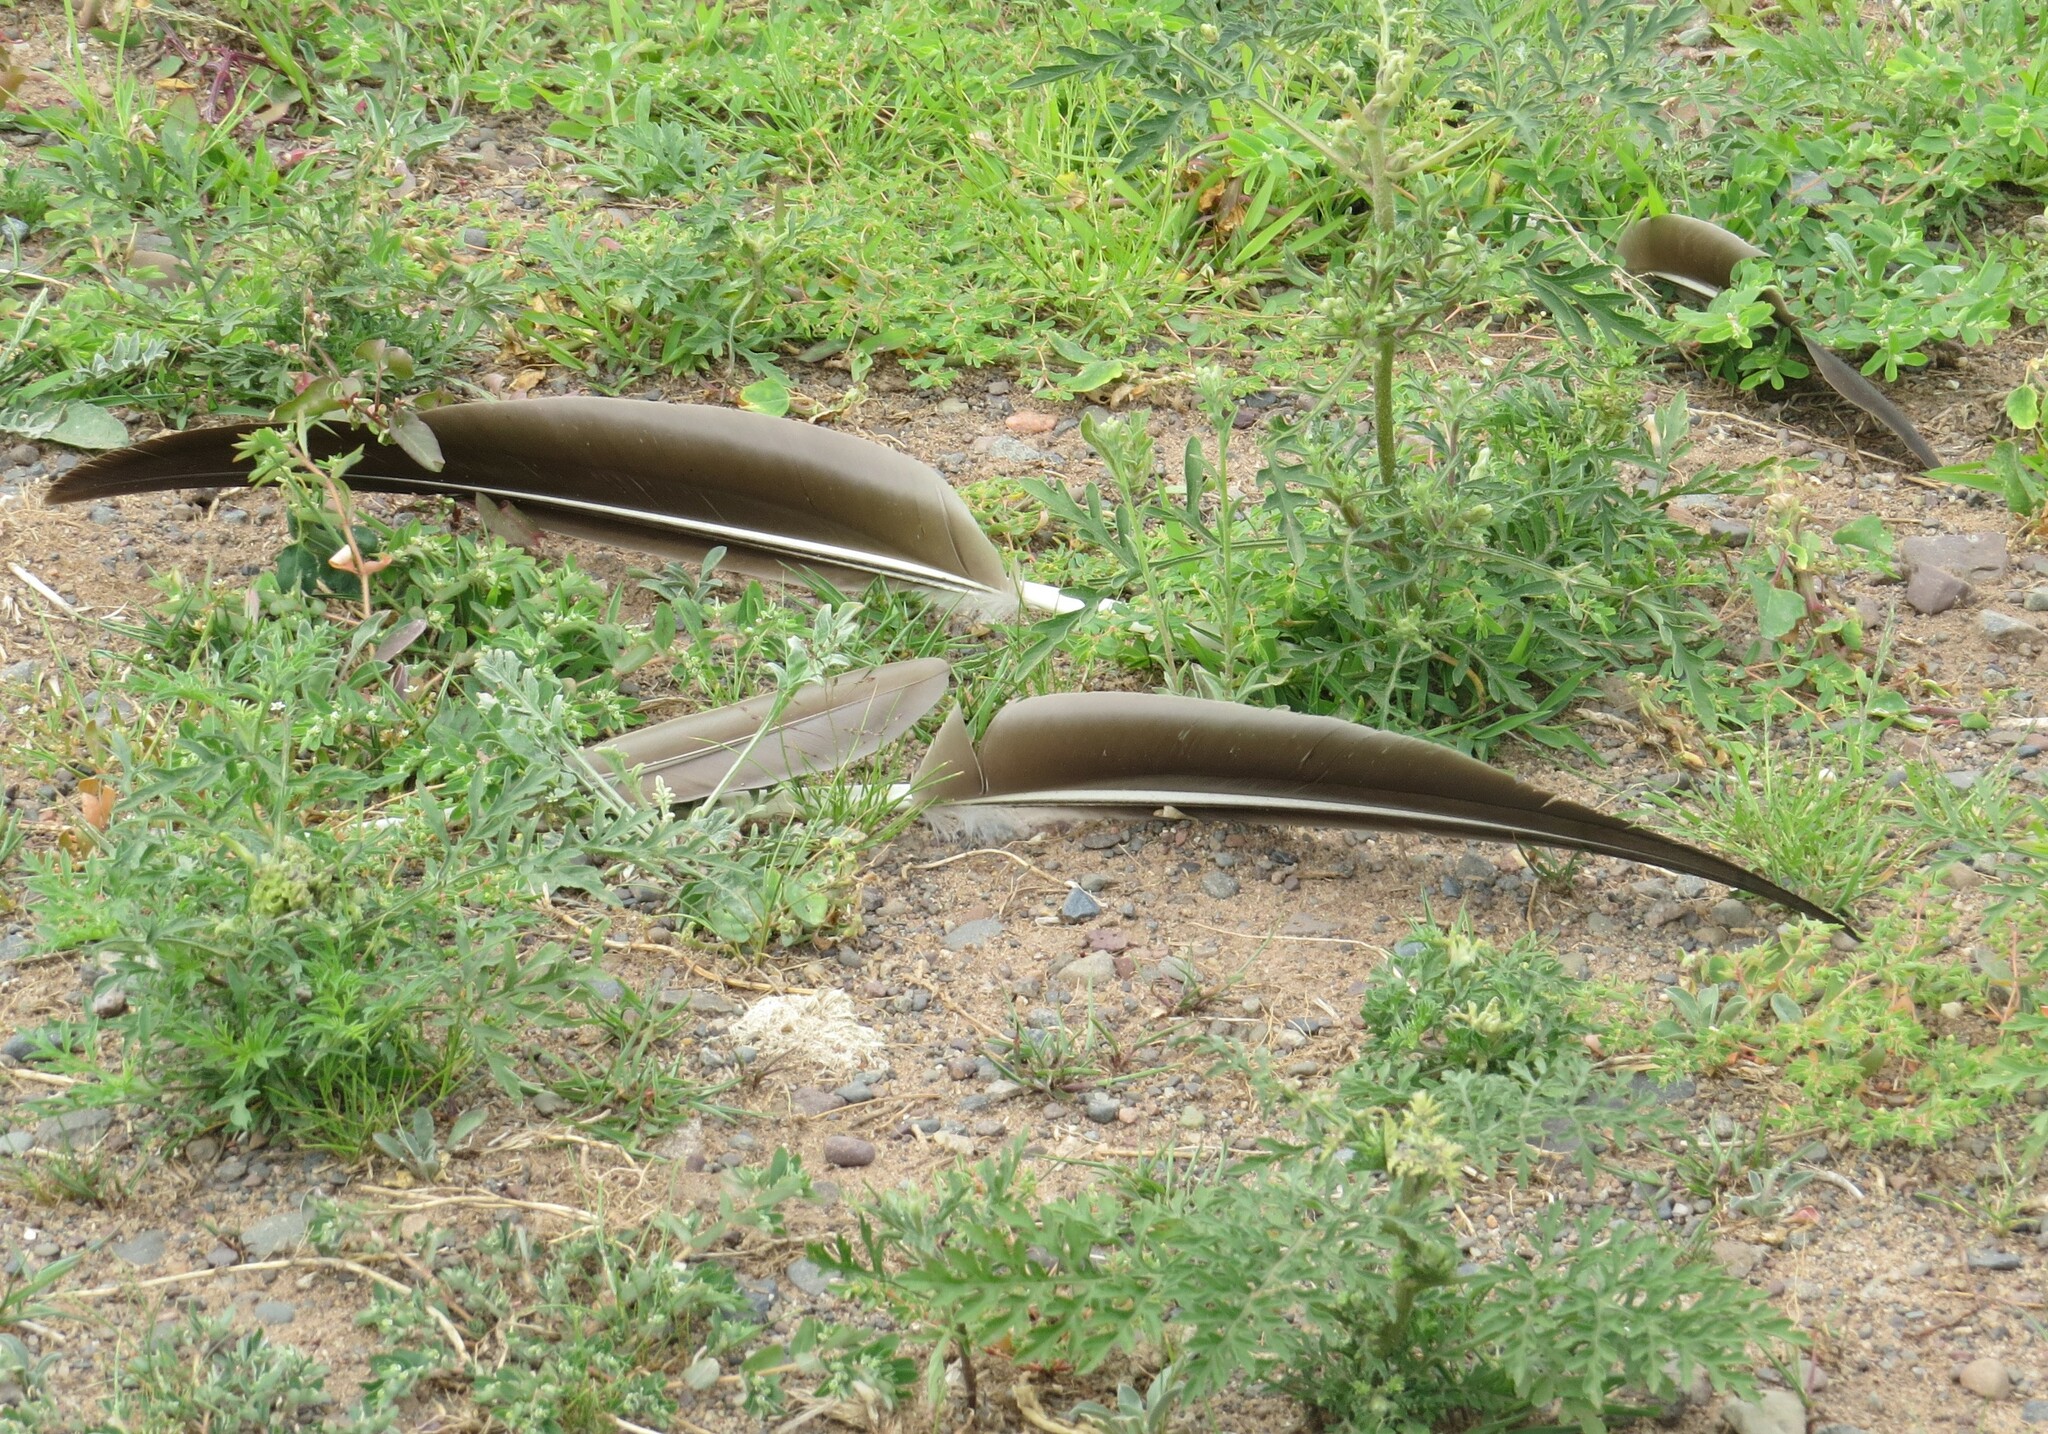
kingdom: Animalia
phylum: Chordata
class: Aves
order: Anseriformes
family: Anatidae
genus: Branta
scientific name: Branta canadensis
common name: Canada goose
